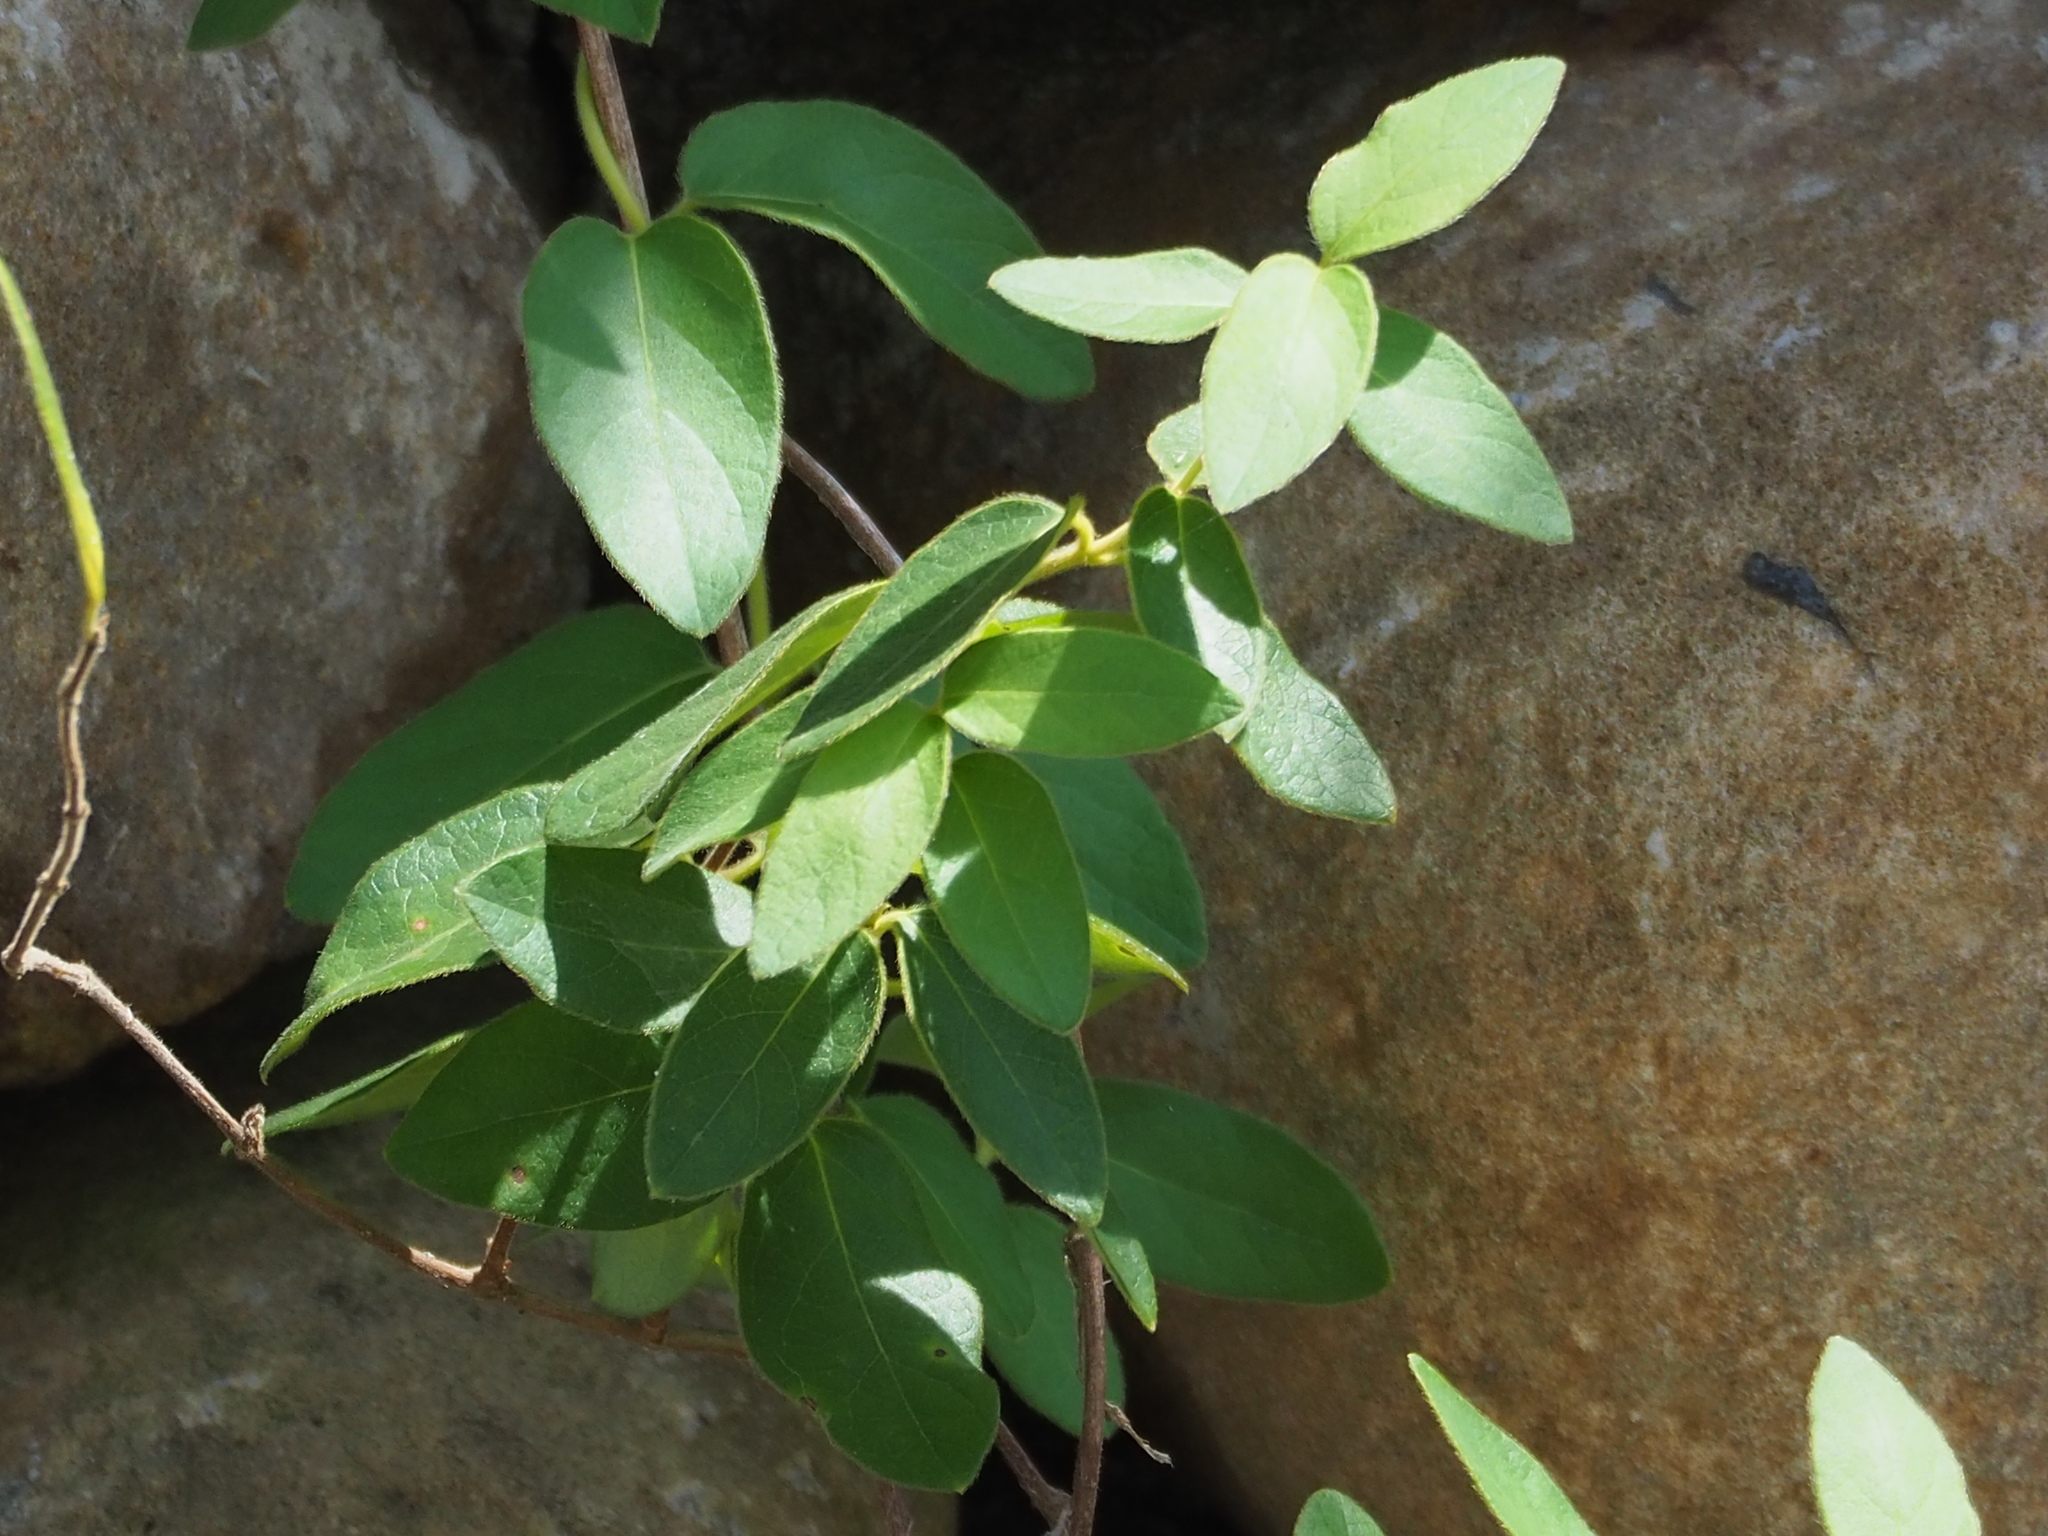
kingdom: Plantae
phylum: Tracheophyta
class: Magnoliopsida
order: Dipsacales
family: Caprifoliaceae
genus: Lonicera
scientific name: Lonicera japonica
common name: Japanese honeysuckle
